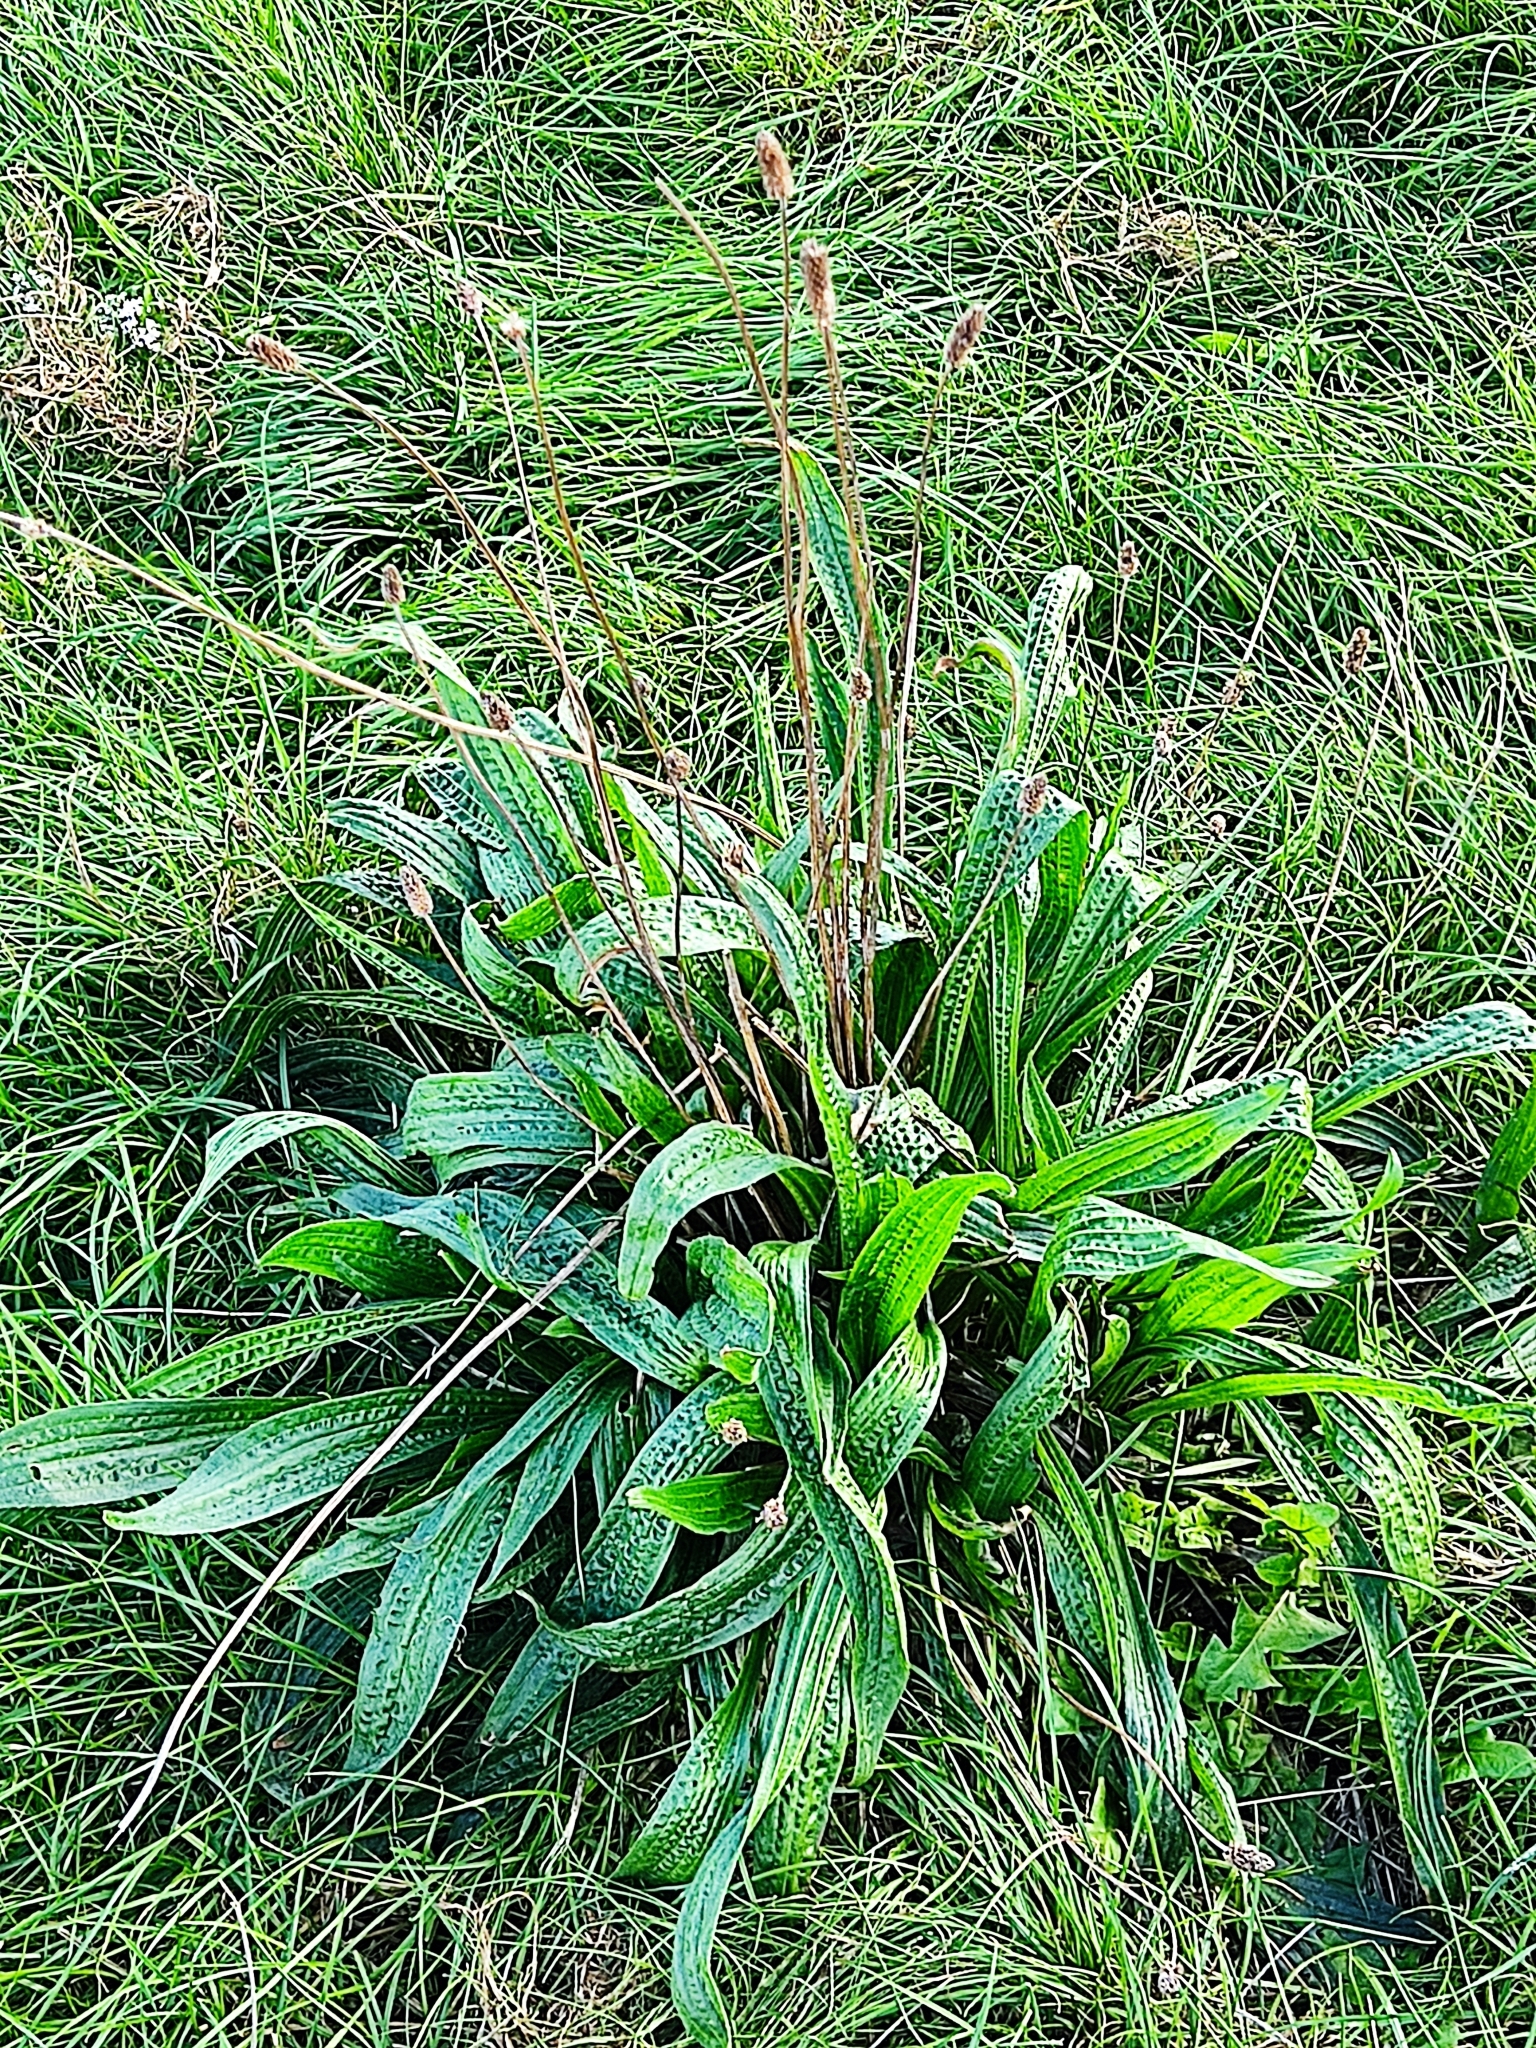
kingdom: Plantae
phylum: Tracheophyta
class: Magnoliopsida
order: Lamiales
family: Plantaginaceae
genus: Plantago
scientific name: Plantago lanceolata
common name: Ribwort plantain
